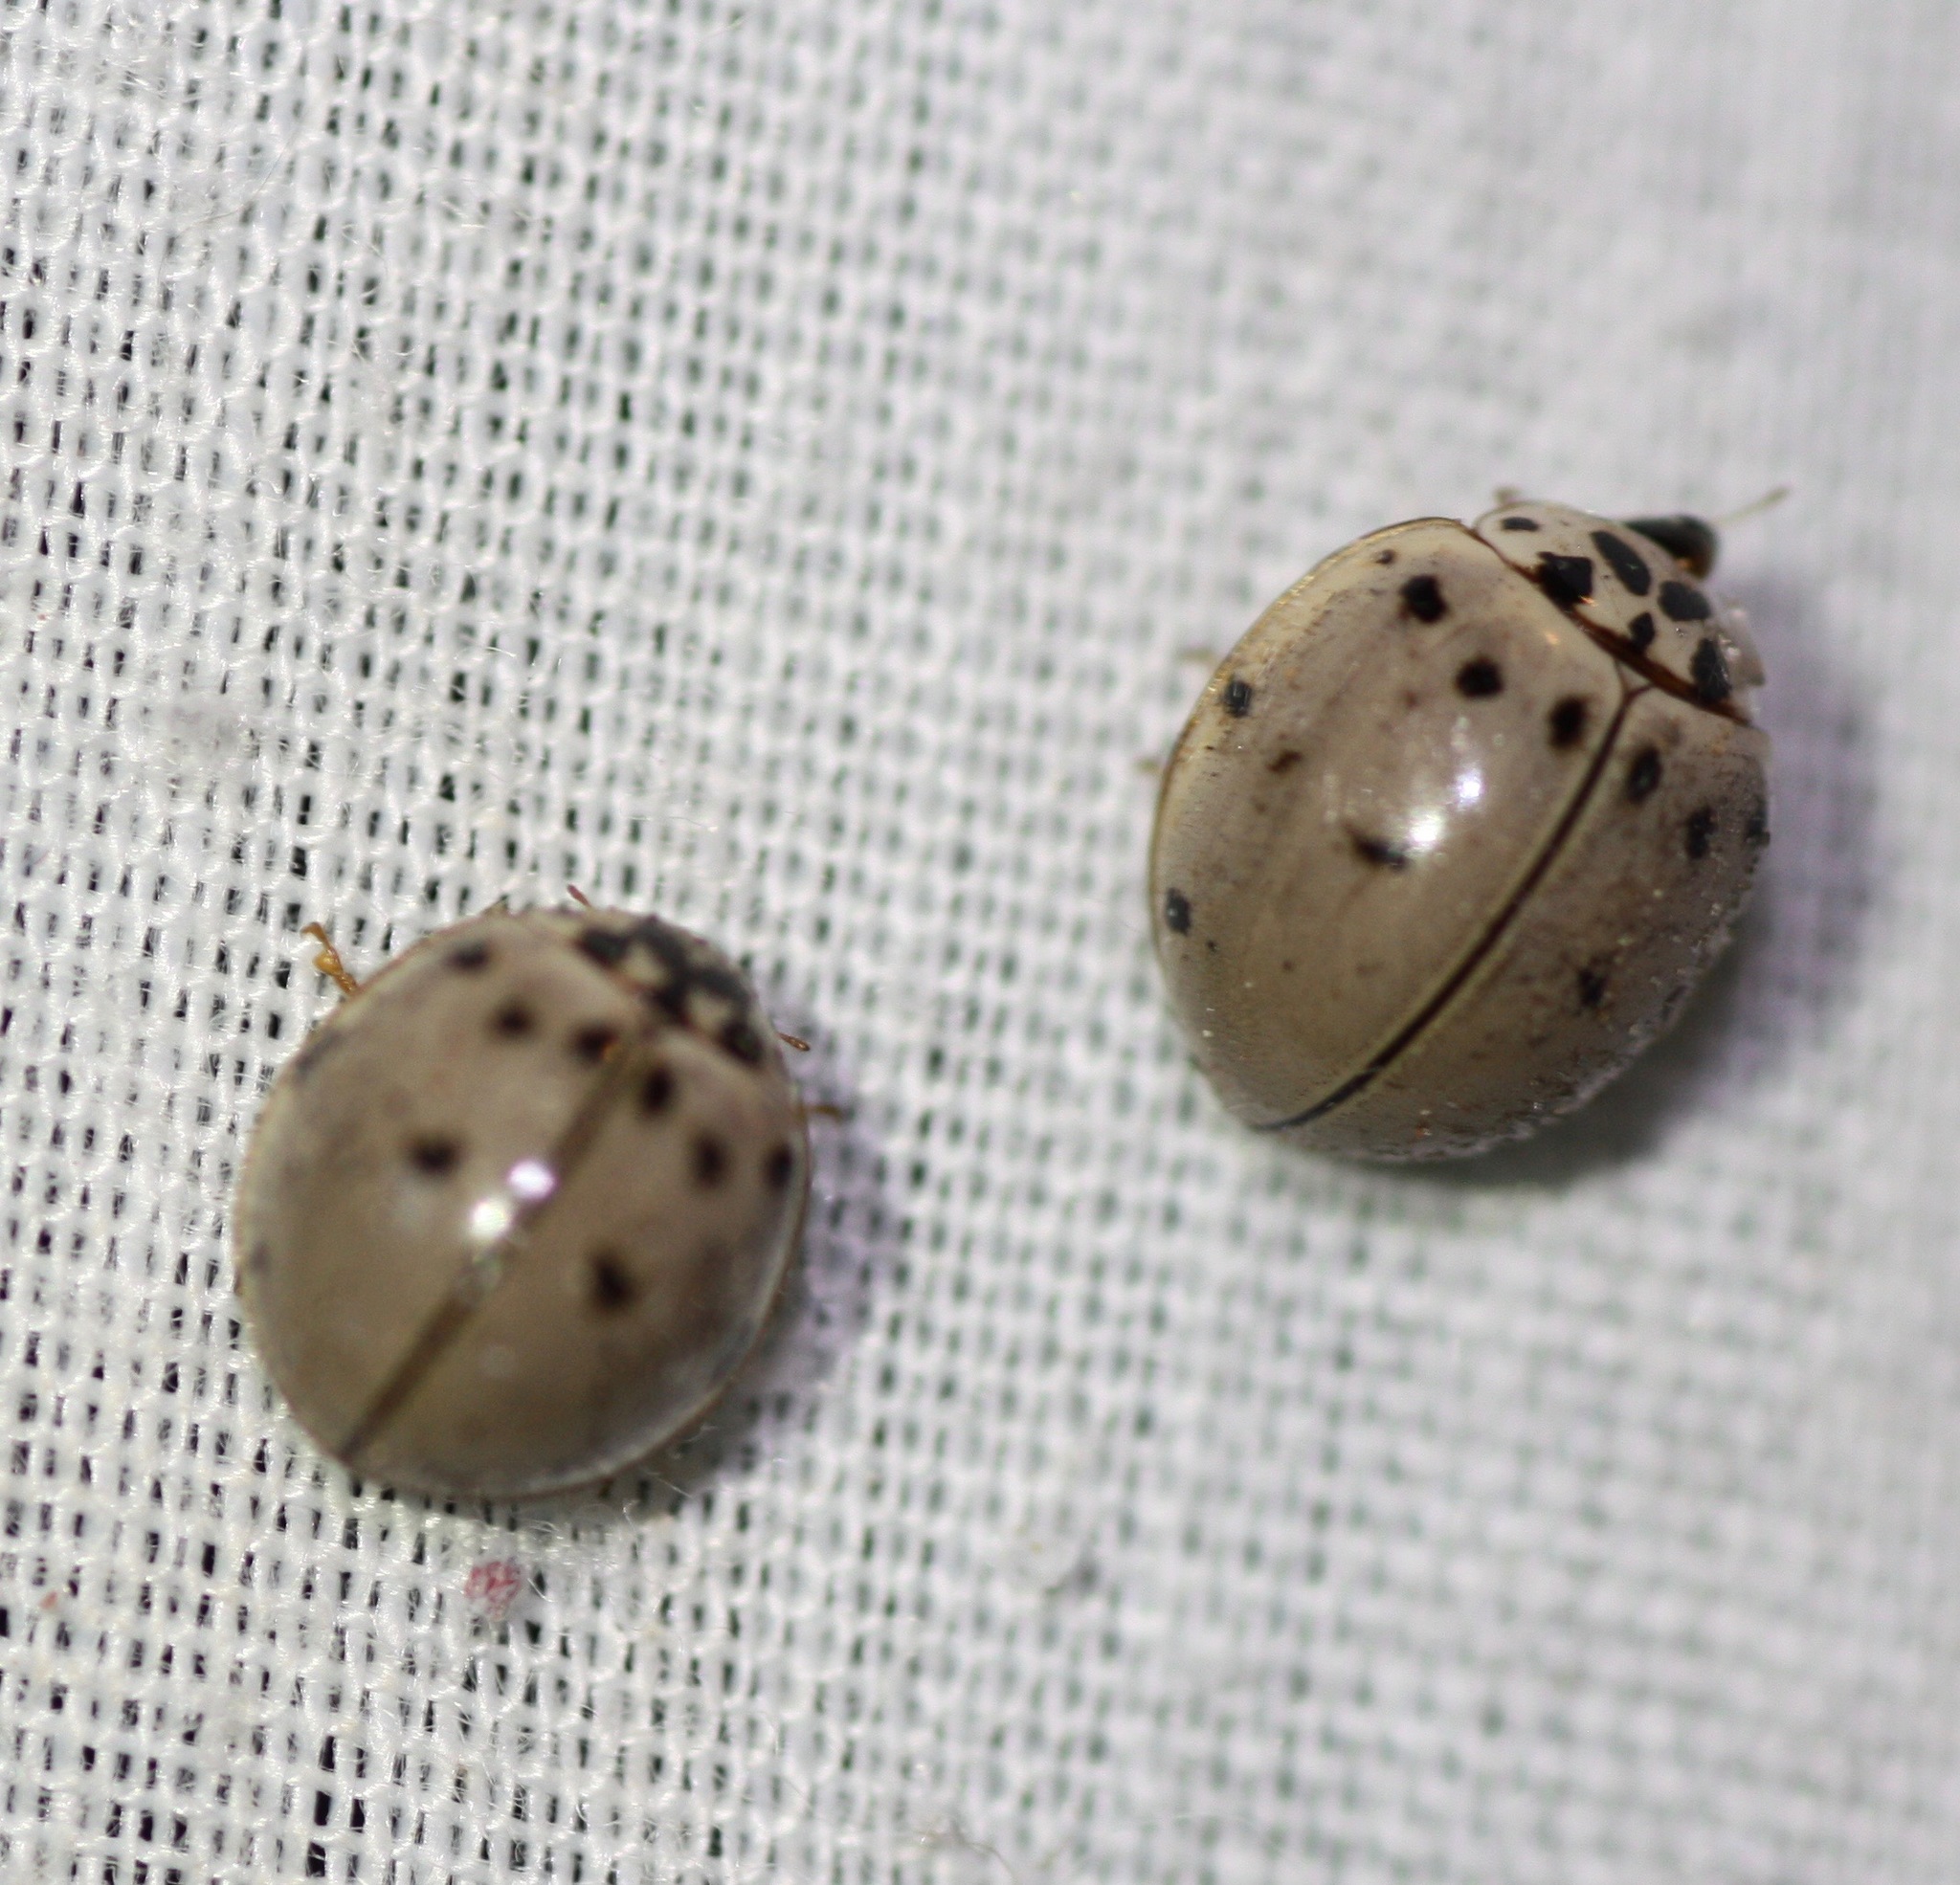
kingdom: Animalia
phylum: Arthropoda
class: Insecta
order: Coleoptera
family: Coccinellidae
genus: Olla
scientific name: Olla v-nigrum
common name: Ashy gray lady beetle
